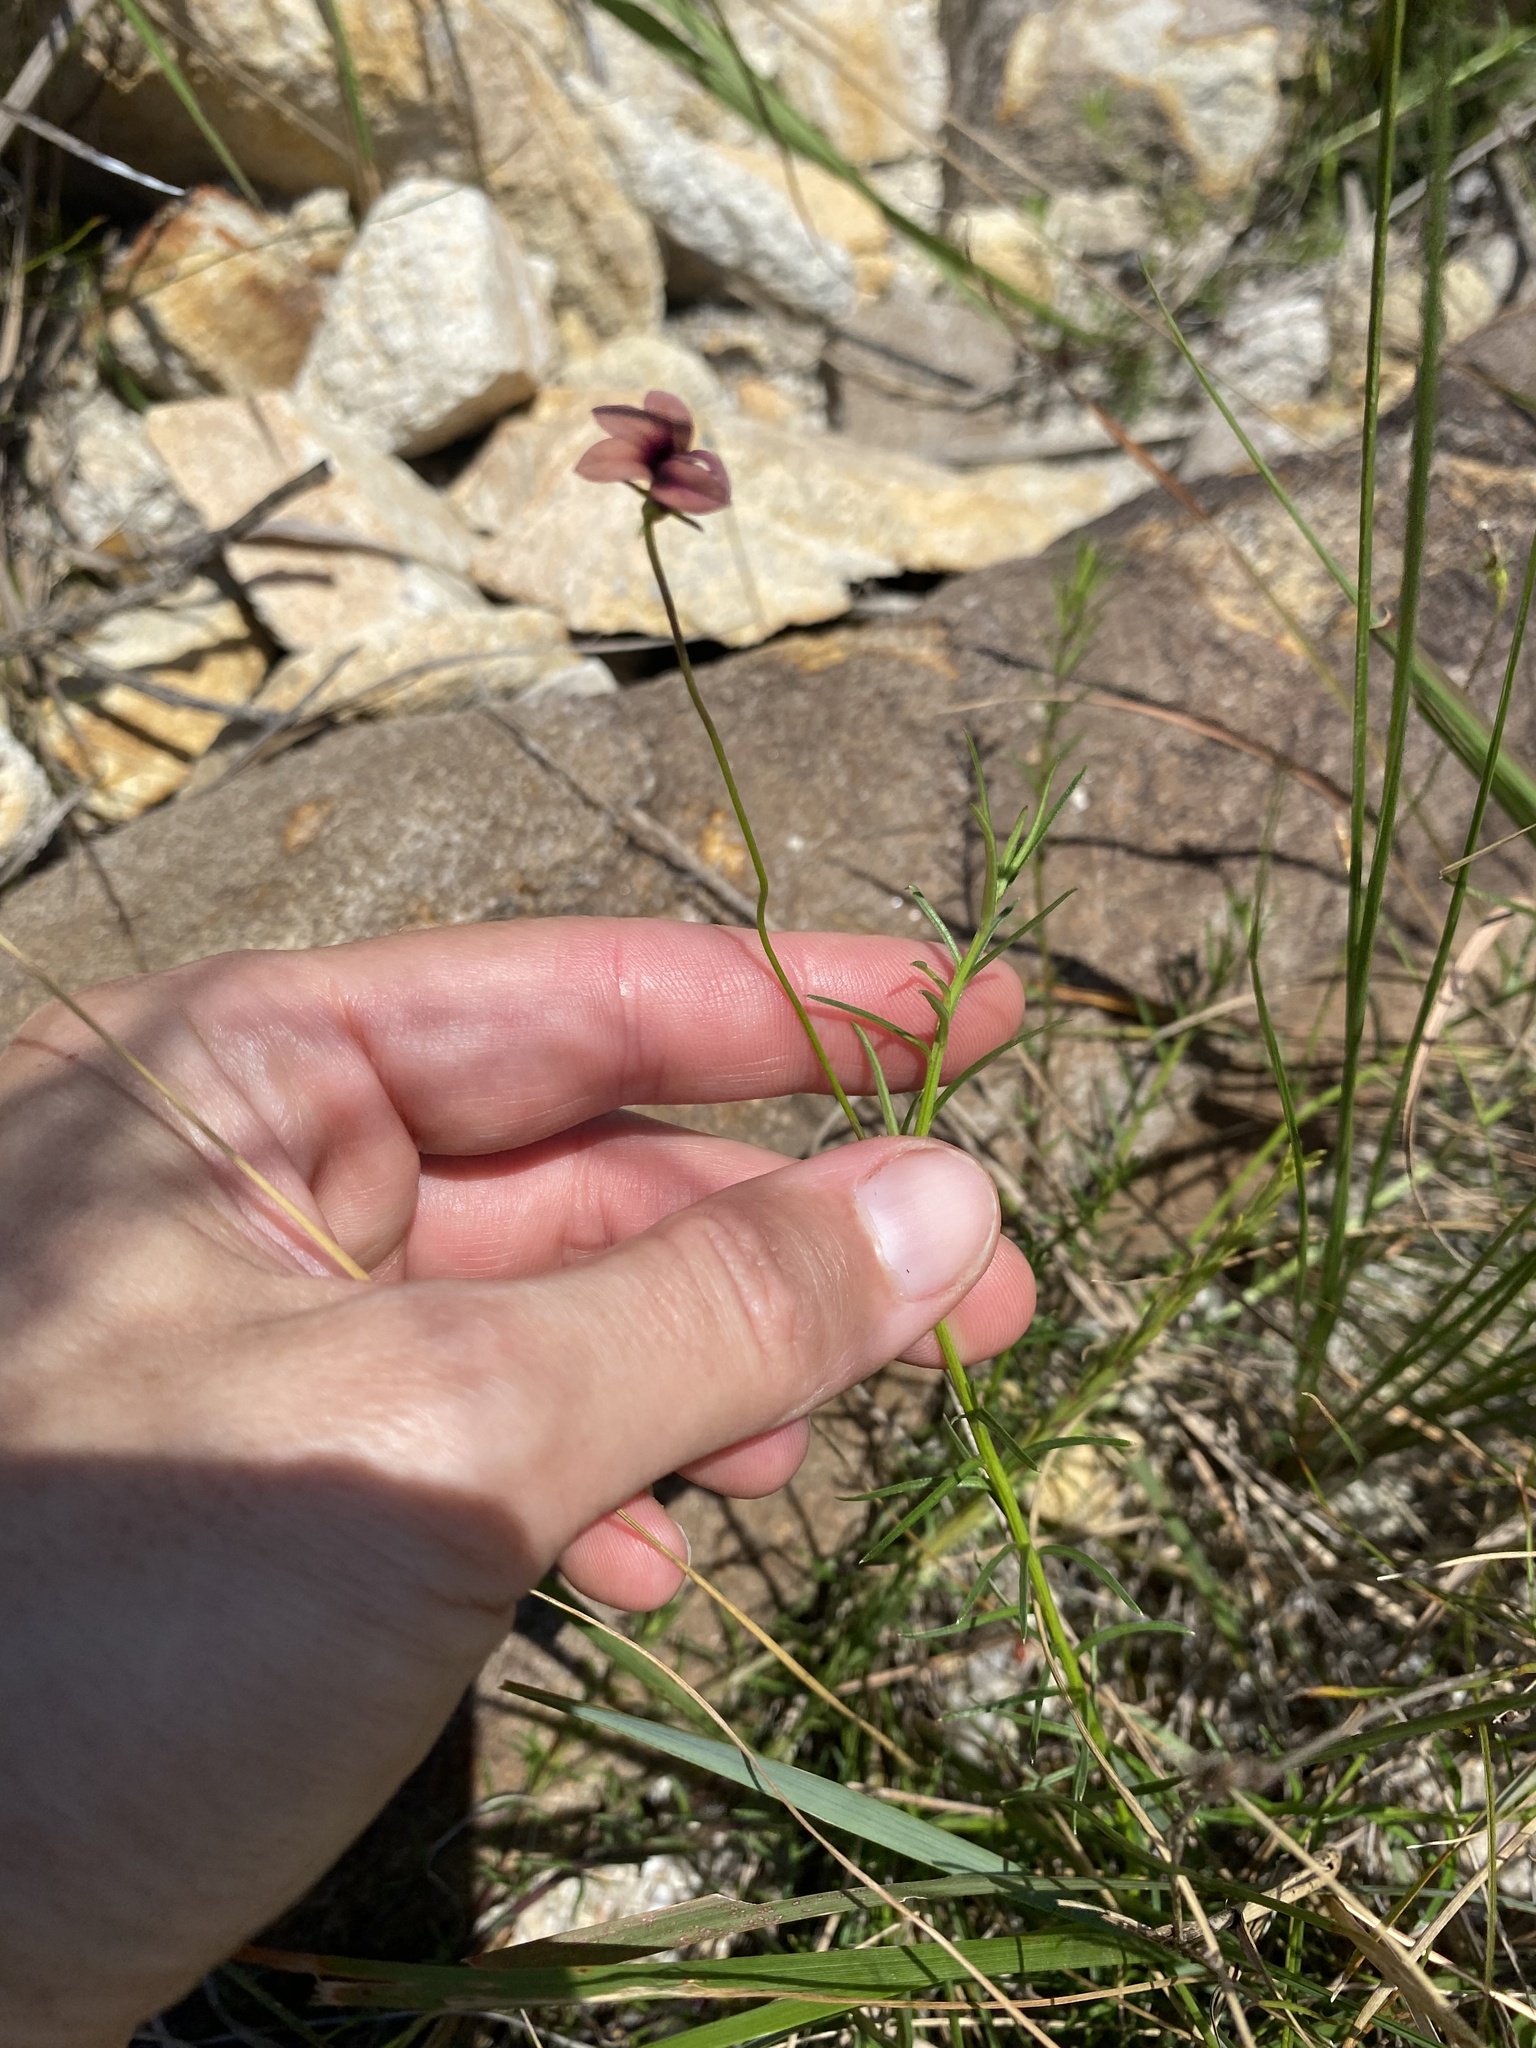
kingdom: Plantae
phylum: Tracheophyta
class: Magnoliopsida
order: Asterales
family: Campanulaceae
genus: Monopsis
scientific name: Monopsis unidentata
